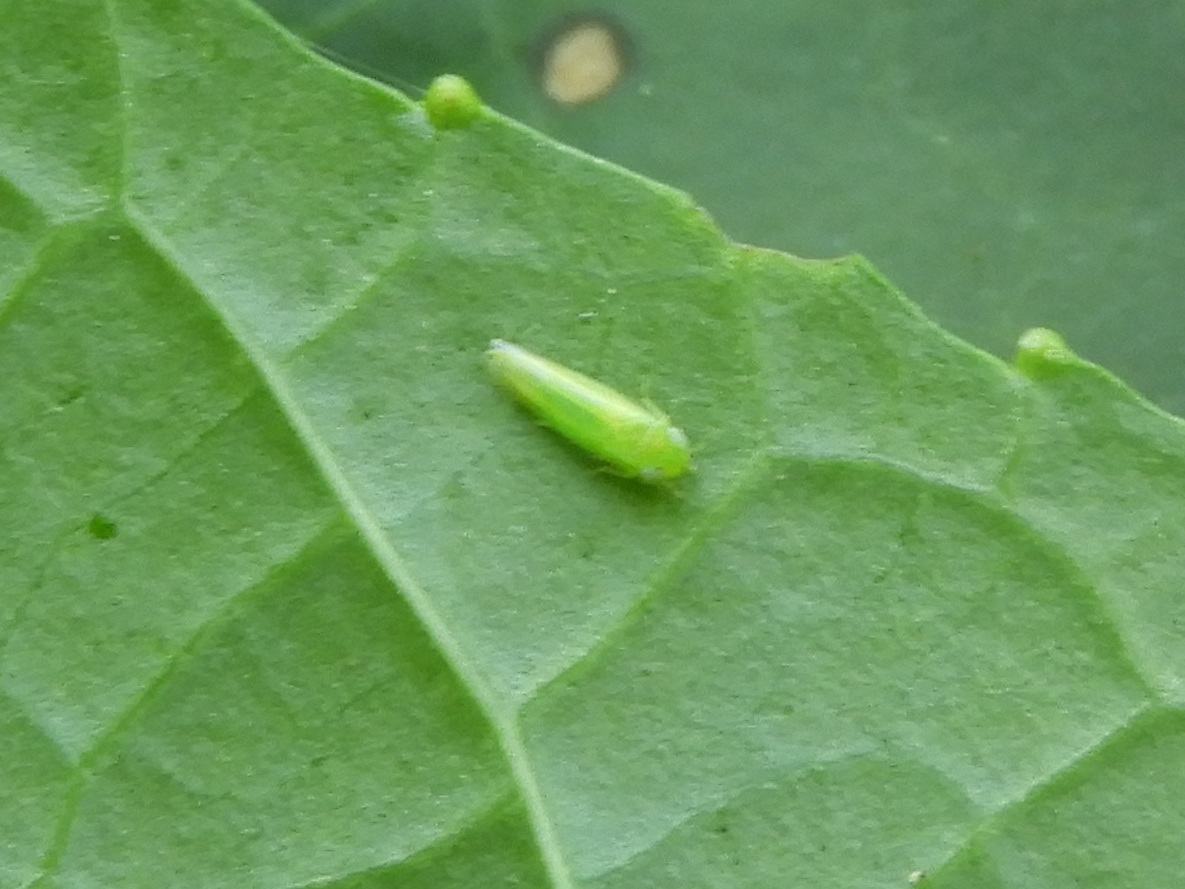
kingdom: Animalia
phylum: Arthropoda
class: Insecta
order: Hemiptera
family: Cicadellidae
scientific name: Cicadellidae
